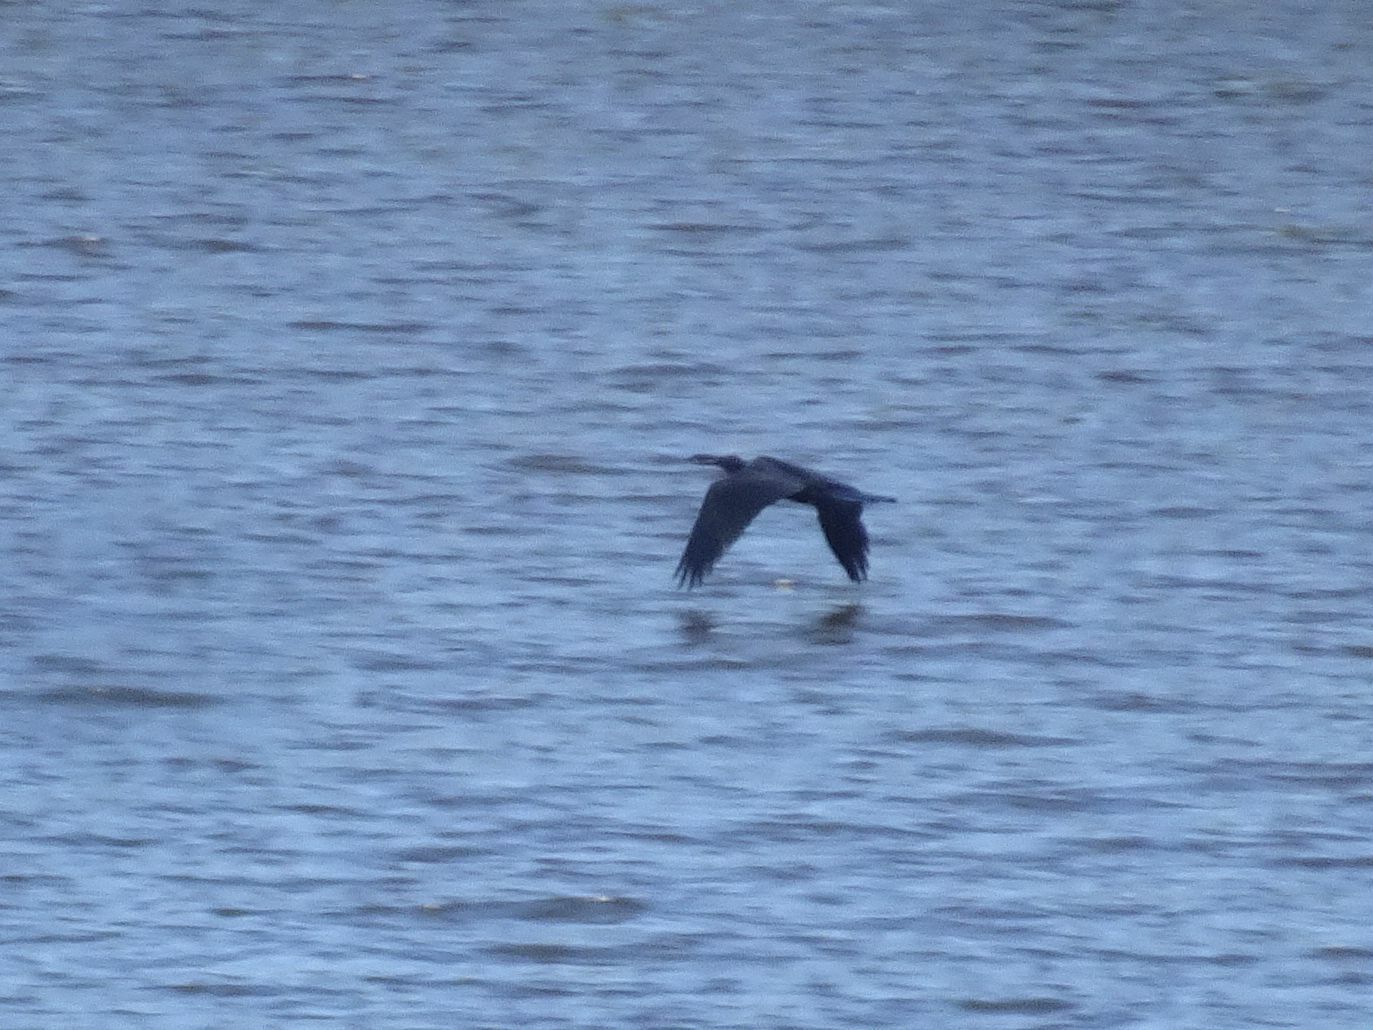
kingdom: Animalia
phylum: Chordata
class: Aves
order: Suliformes
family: Anhingidae
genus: Anhinga
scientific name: Anhinga rufa
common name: African darter
